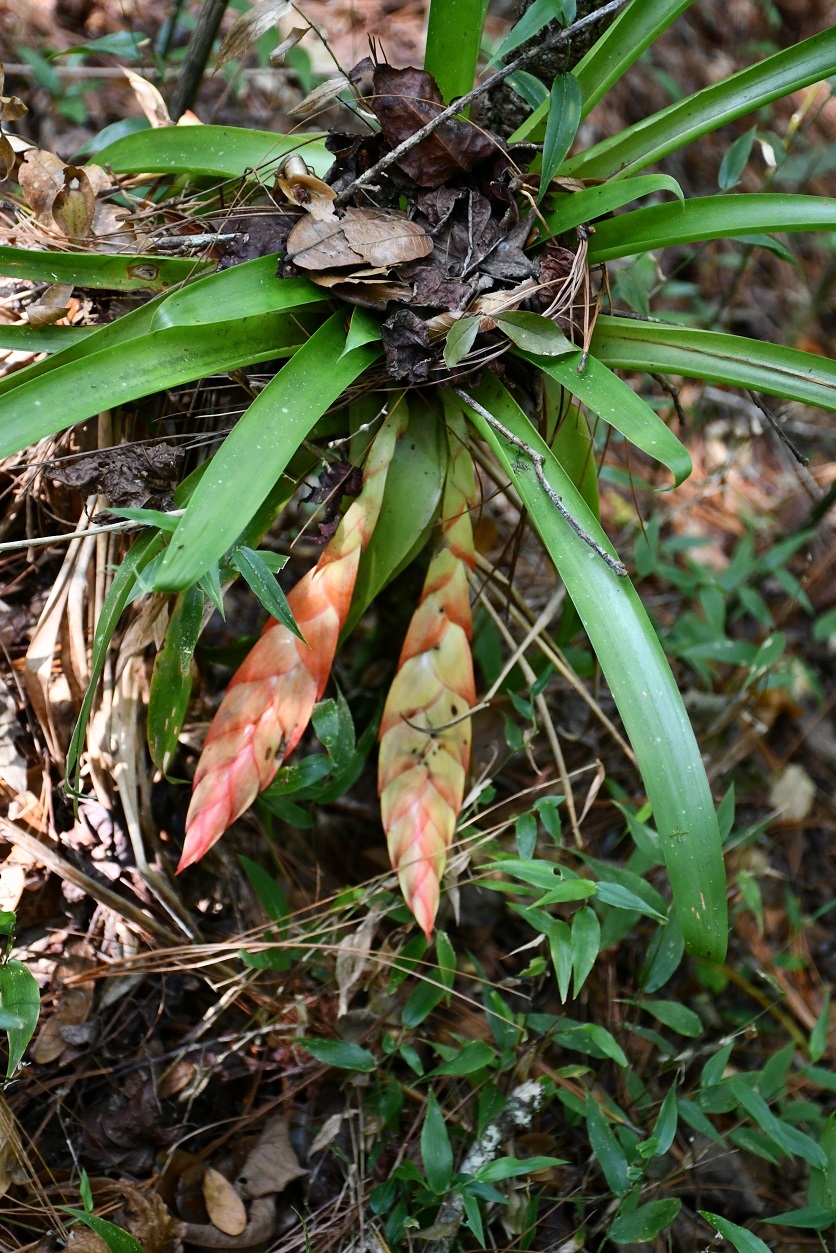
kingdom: Plantae
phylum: Tracheophyta
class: Liliopsida
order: Poales
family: Bromeliaceae
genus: Tillandsia
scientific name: Tillandsia multicaulis
